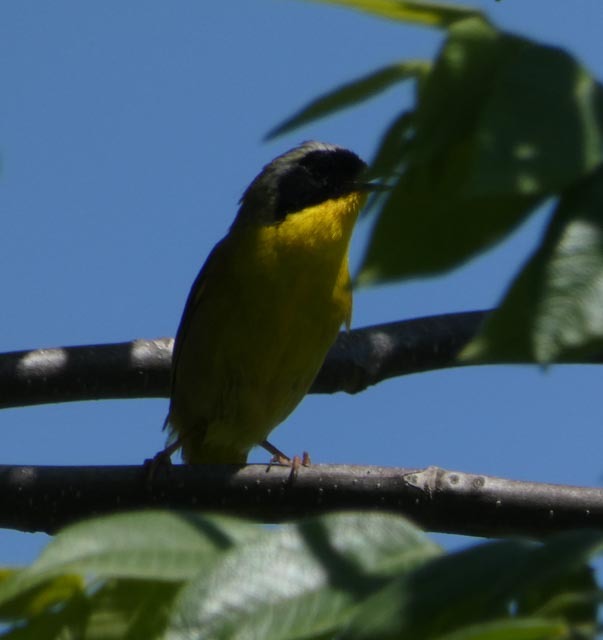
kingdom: Animalia
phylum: Chordata
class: Aves
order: Passeriformes
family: Parulidae
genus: Geothlypis
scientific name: Geothlypis trichas
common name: Common yellowthroat
